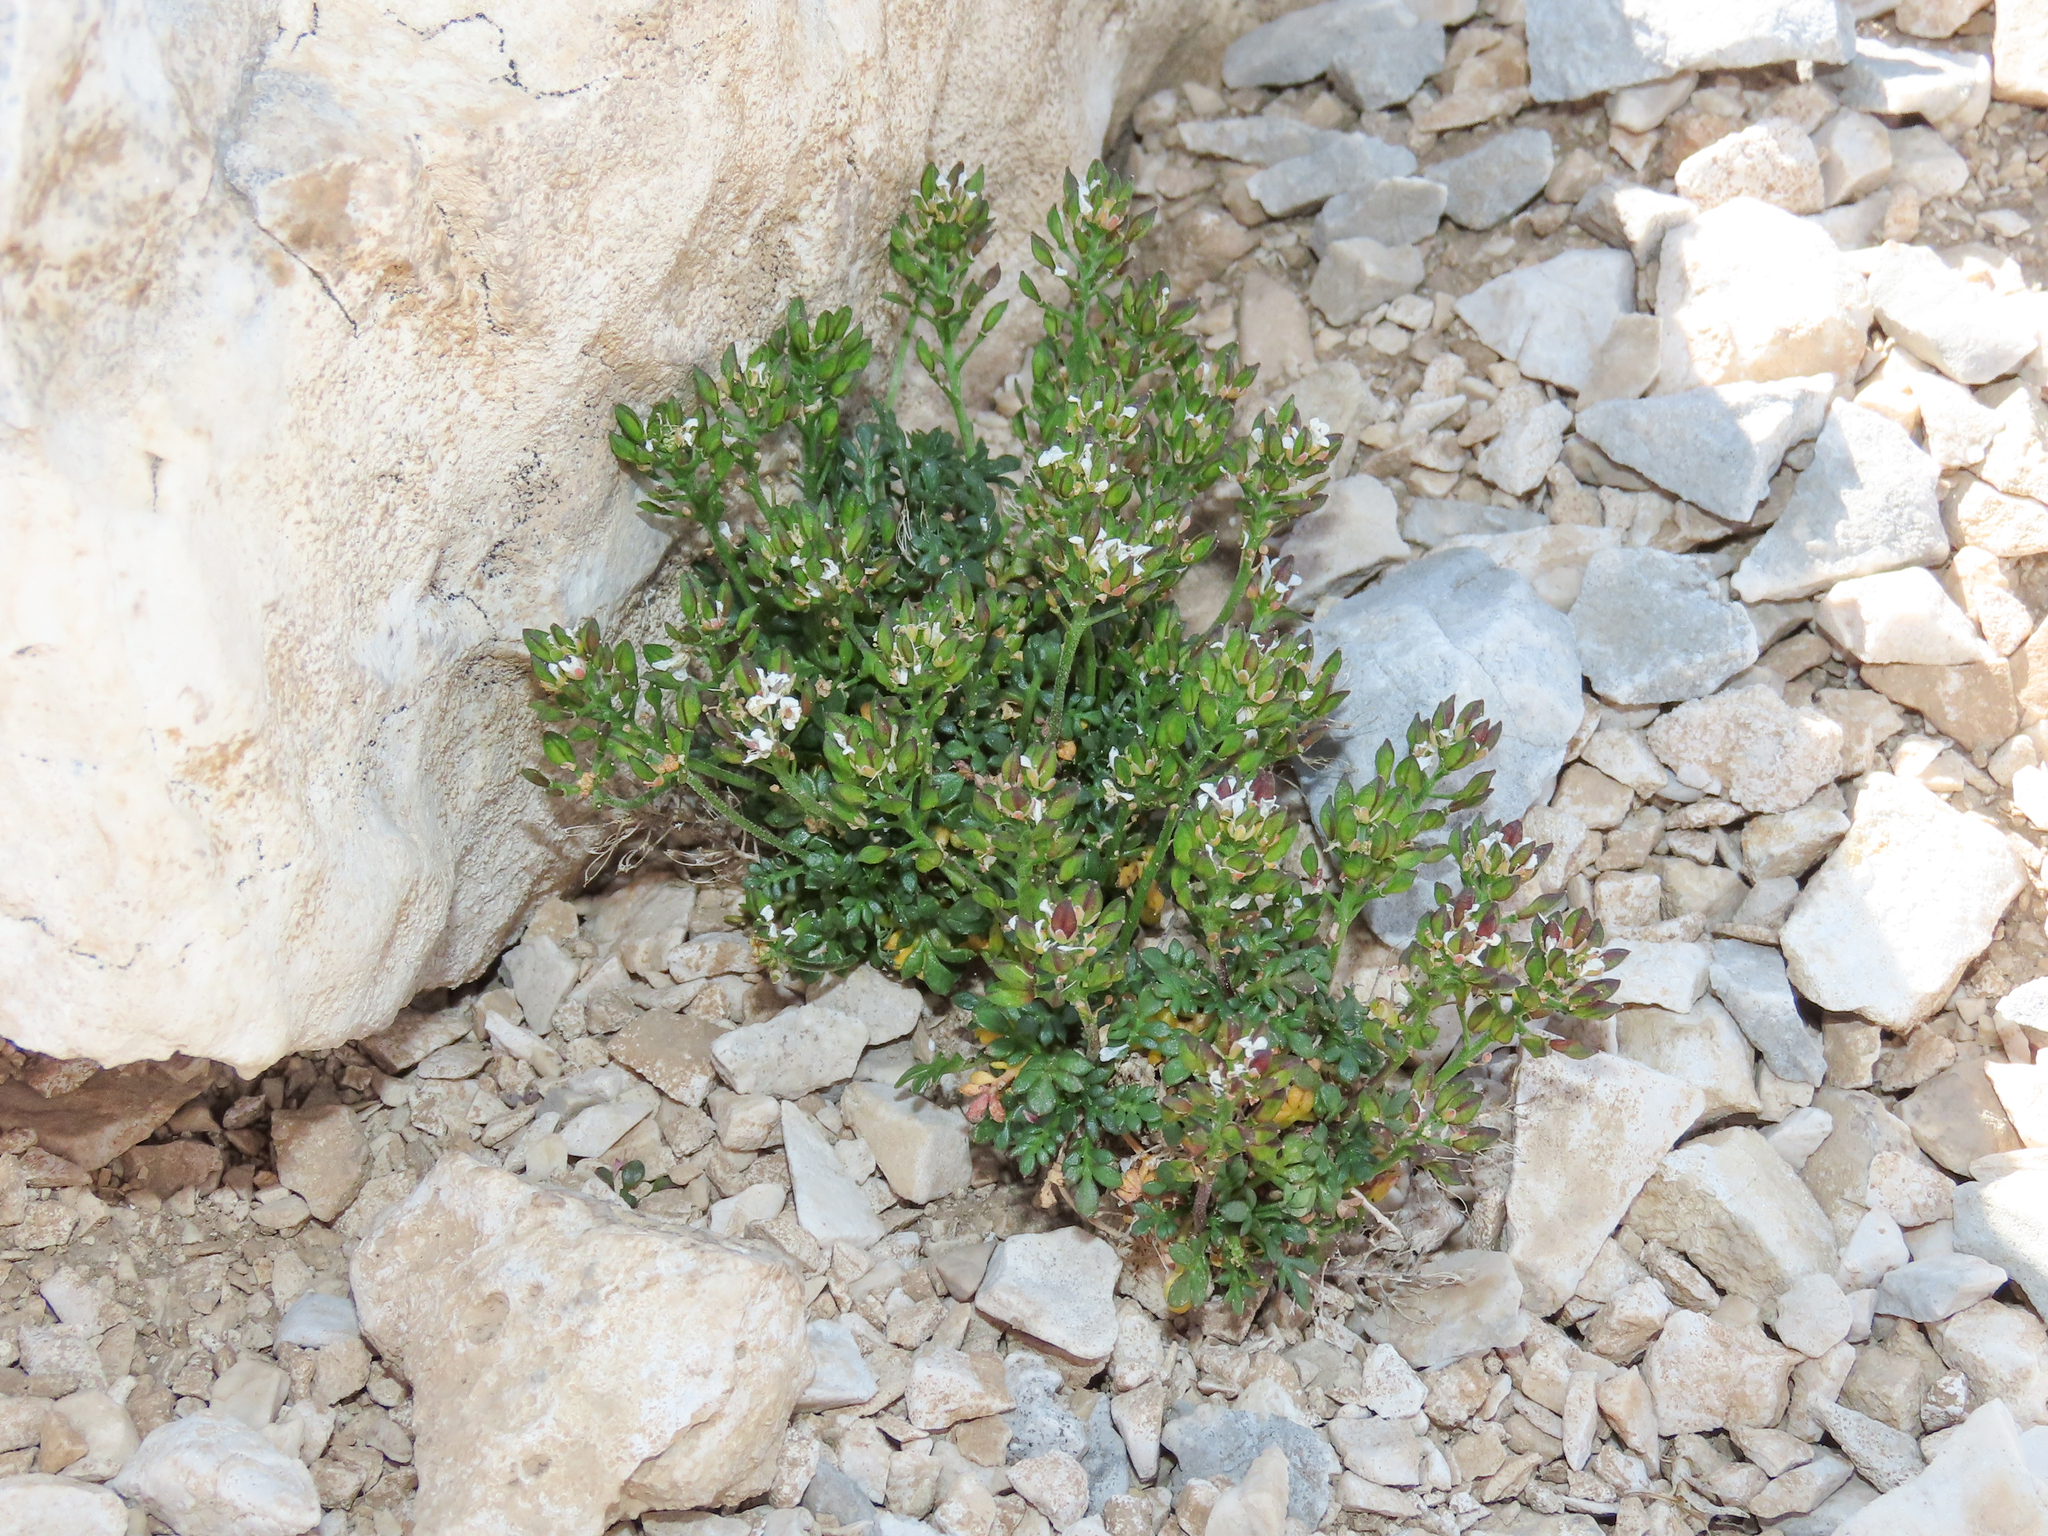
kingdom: Plantae
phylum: Tracheophyta
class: Magnoliopsida
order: Brassicales
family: Brassicaceae
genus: Hornungia
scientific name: Hornungia alpina
